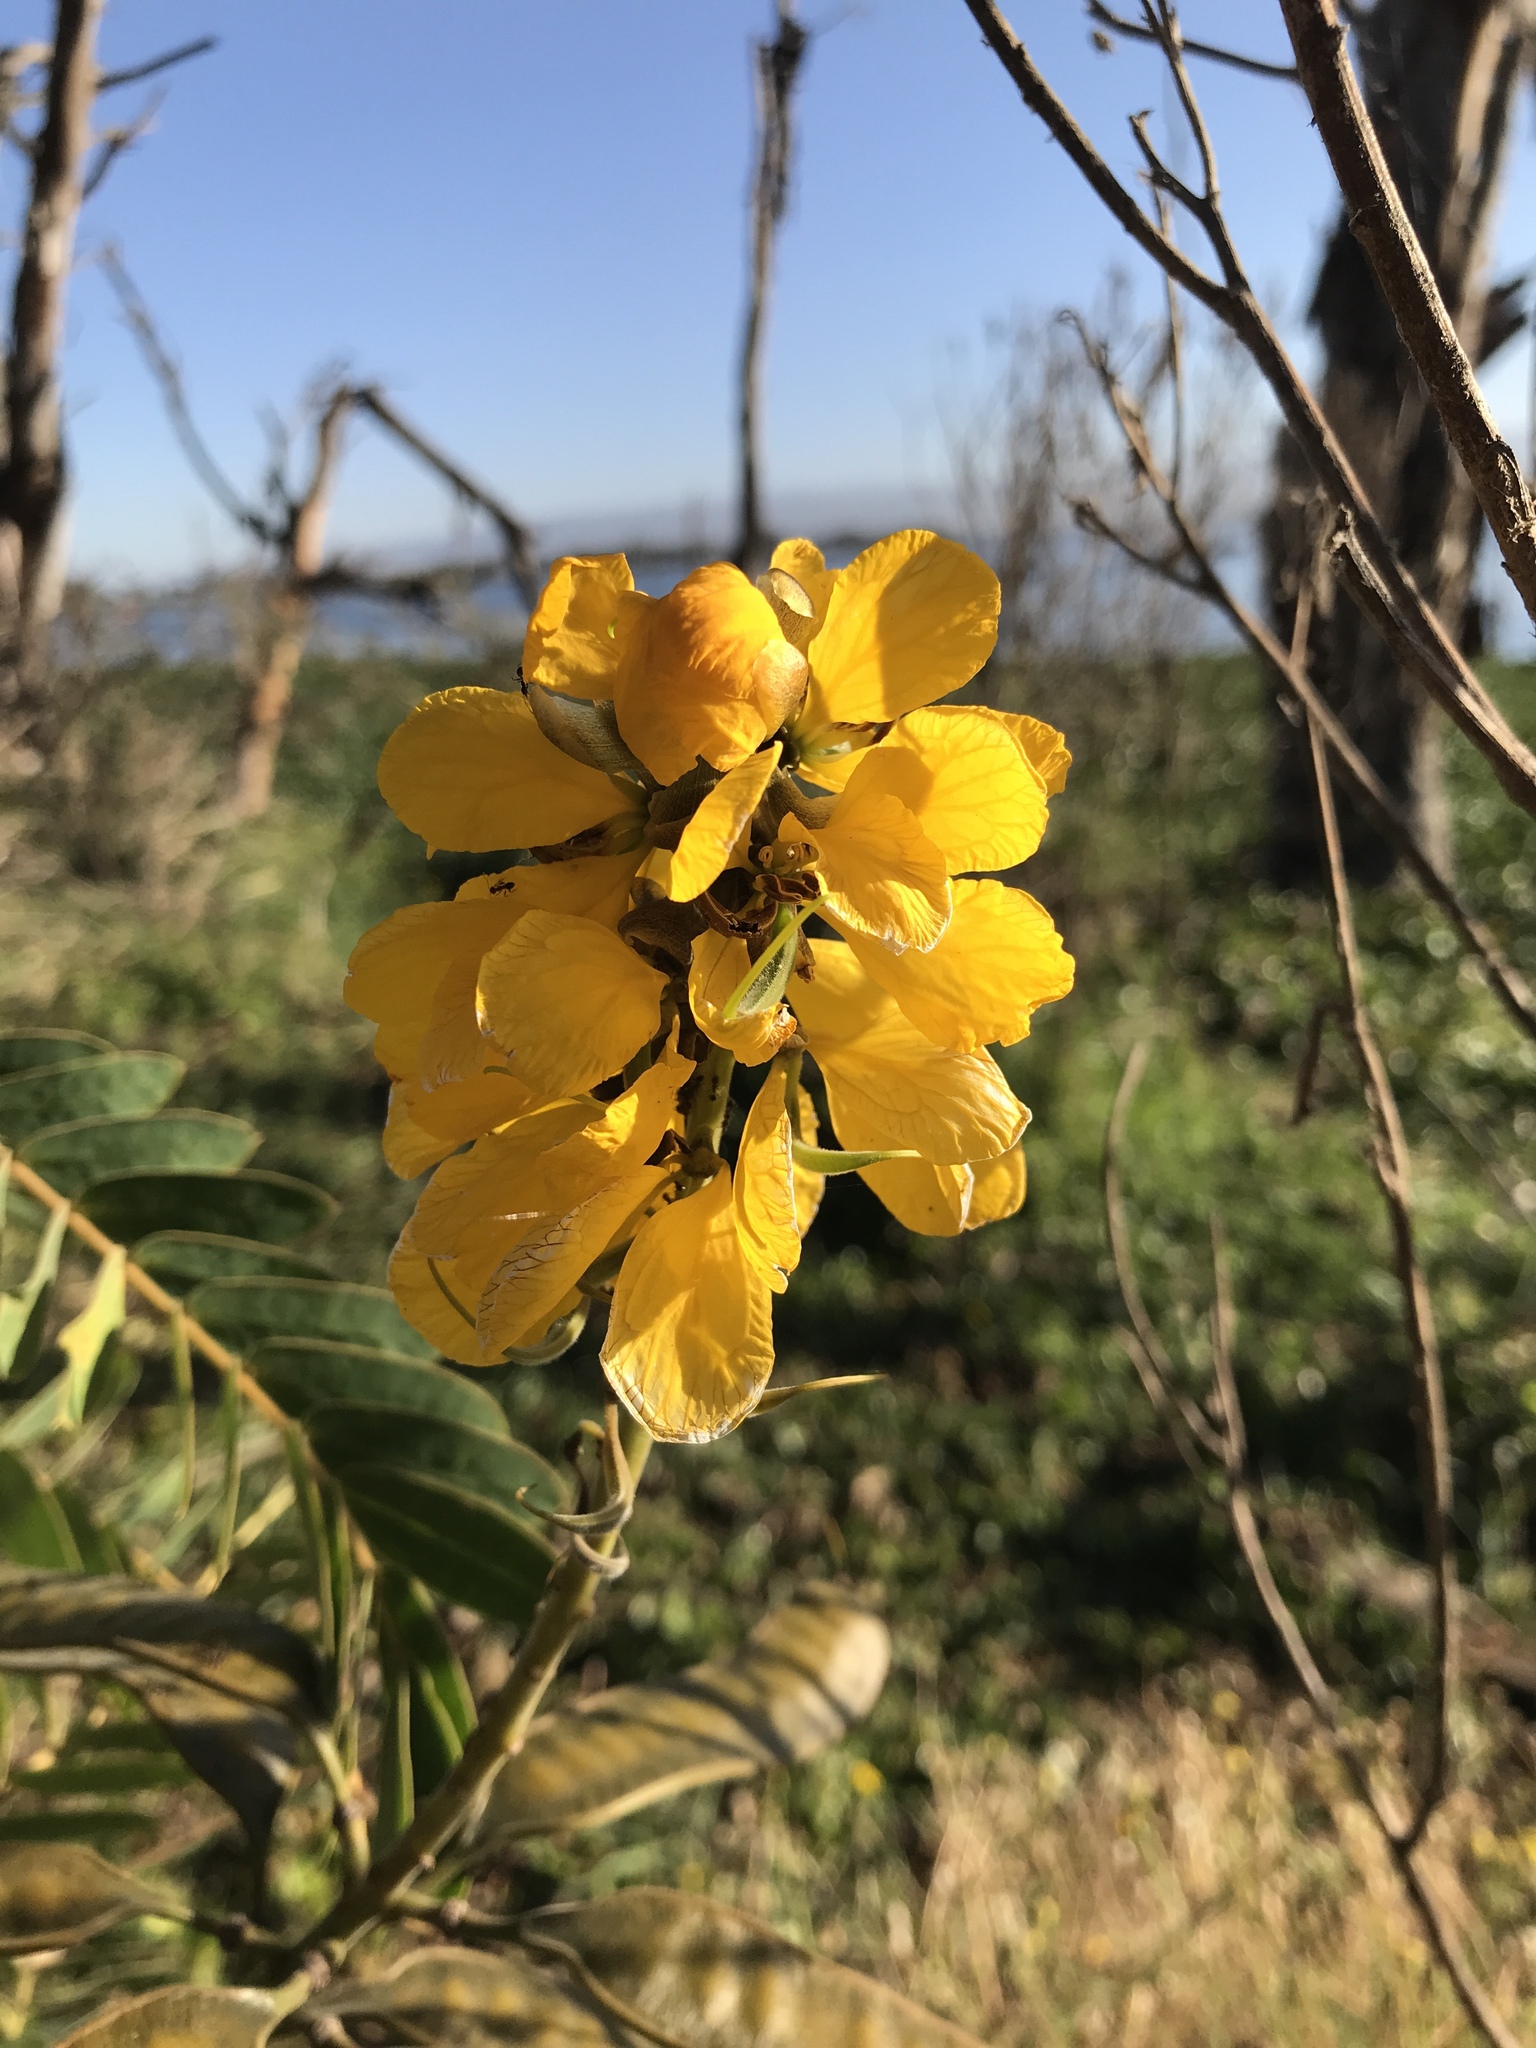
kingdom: Plantae
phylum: Tracheophyta
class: Magnoliopsida
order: Fabales
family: Fabaceae
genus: Senna
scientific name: Senna didymobotrya
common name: African senna
